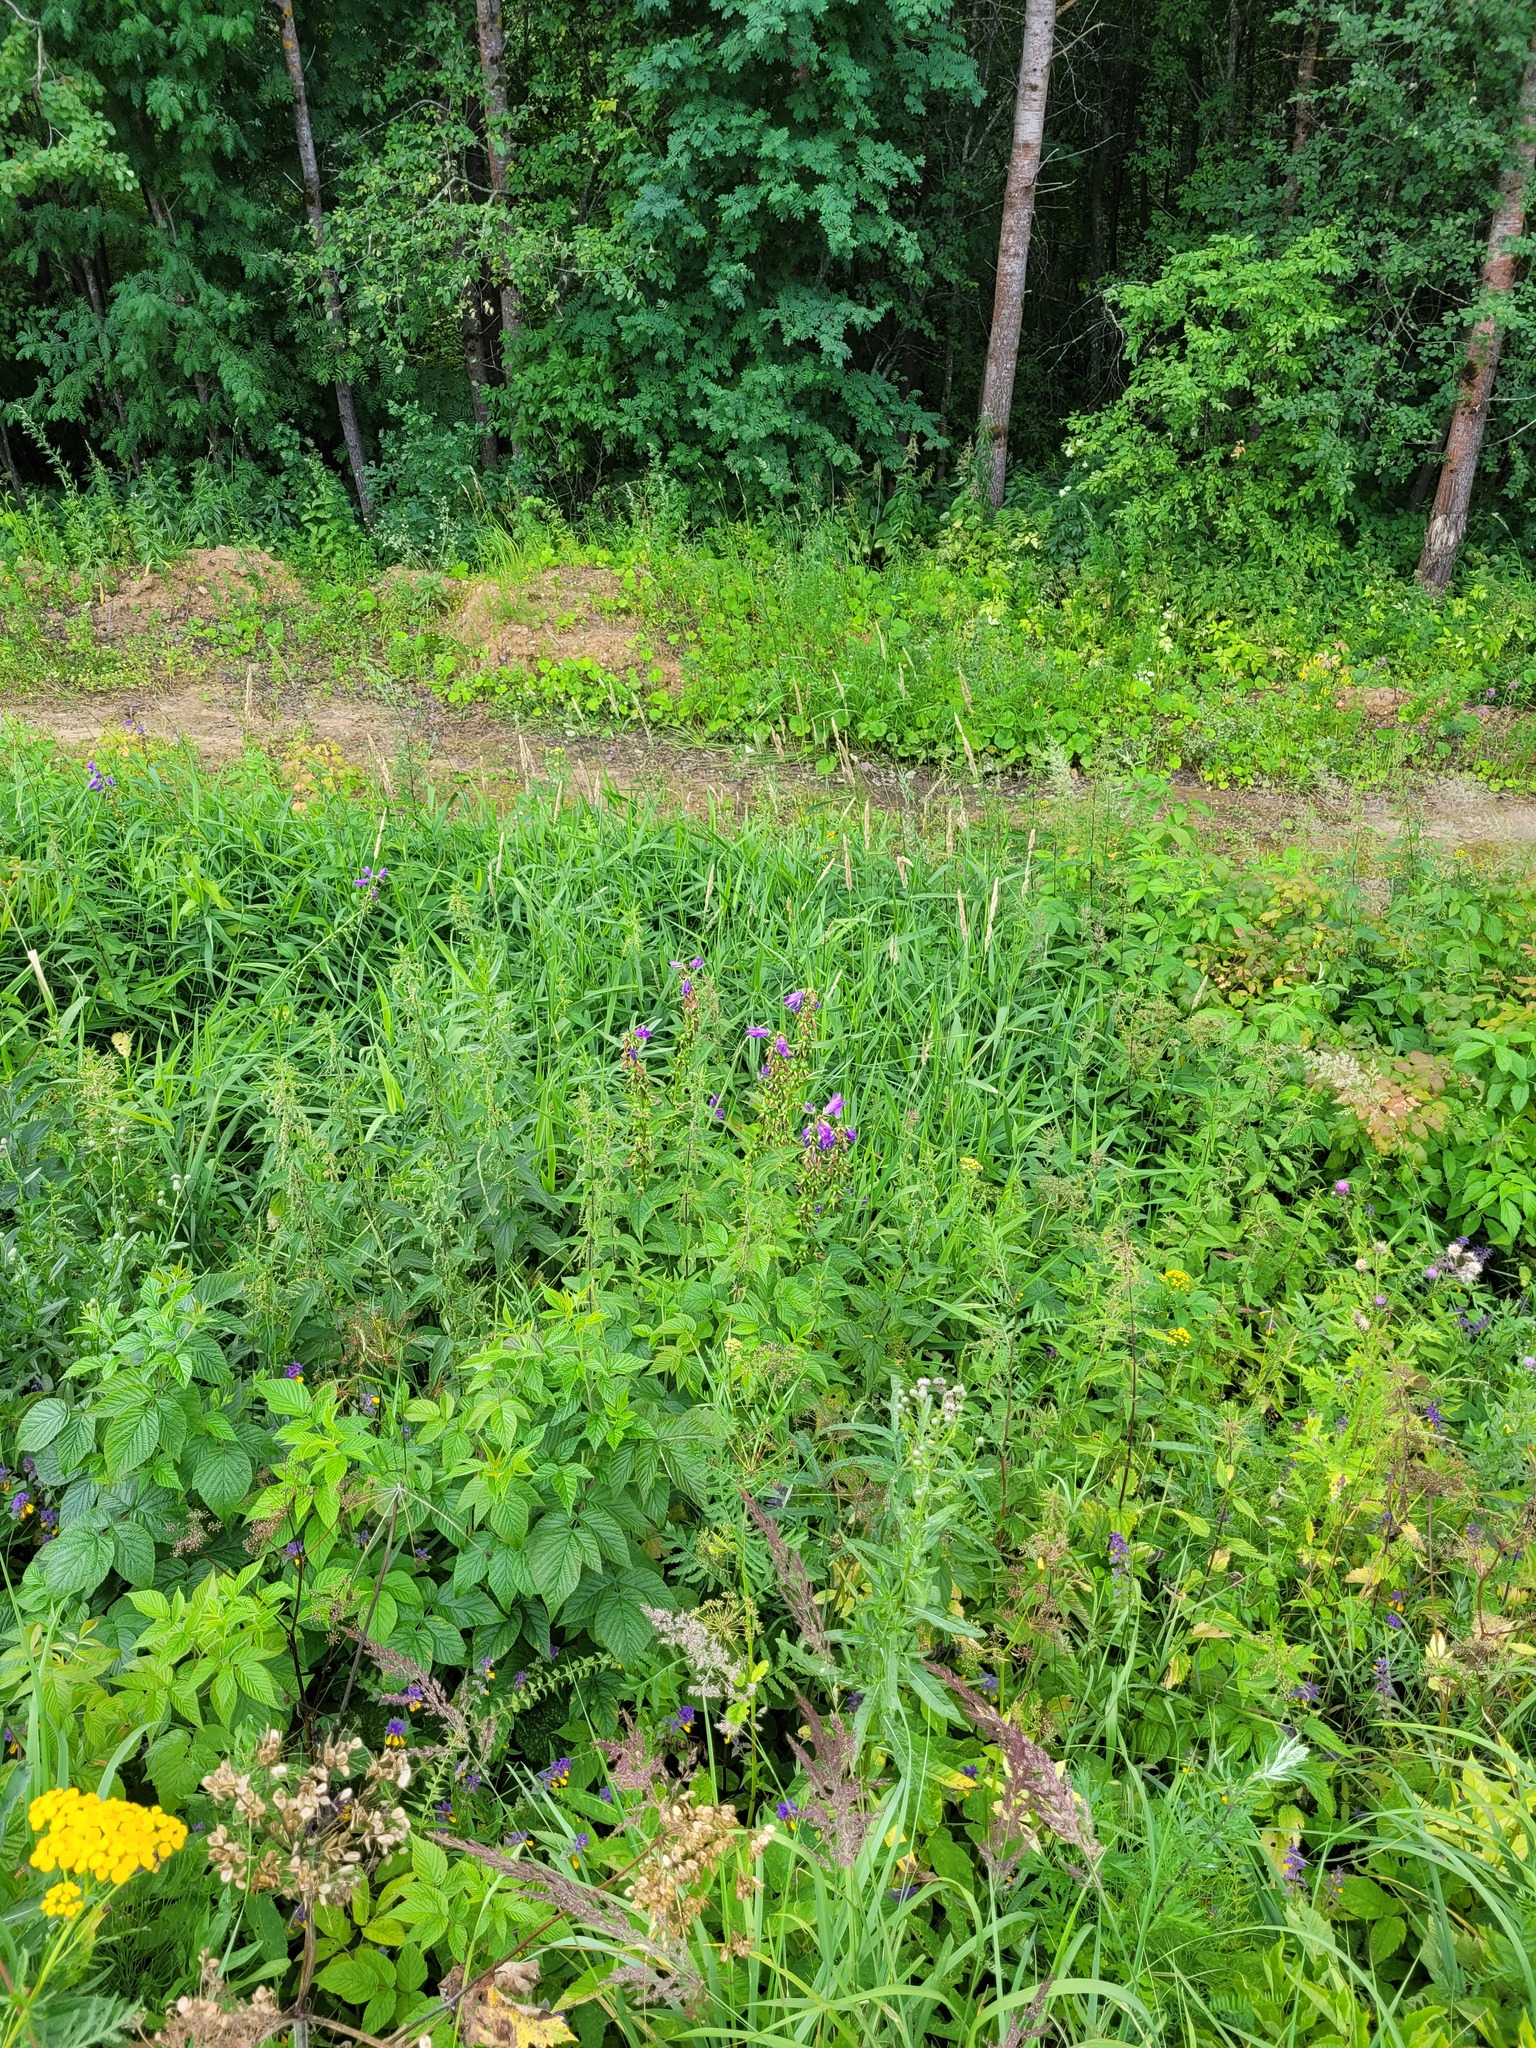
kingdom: Plantae
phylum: Tracheophyta
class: Magnoliopsida
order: Asterales
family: Campanulaceae
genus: Campanula
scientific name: Campanula latifolia
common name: Giant bellflower
